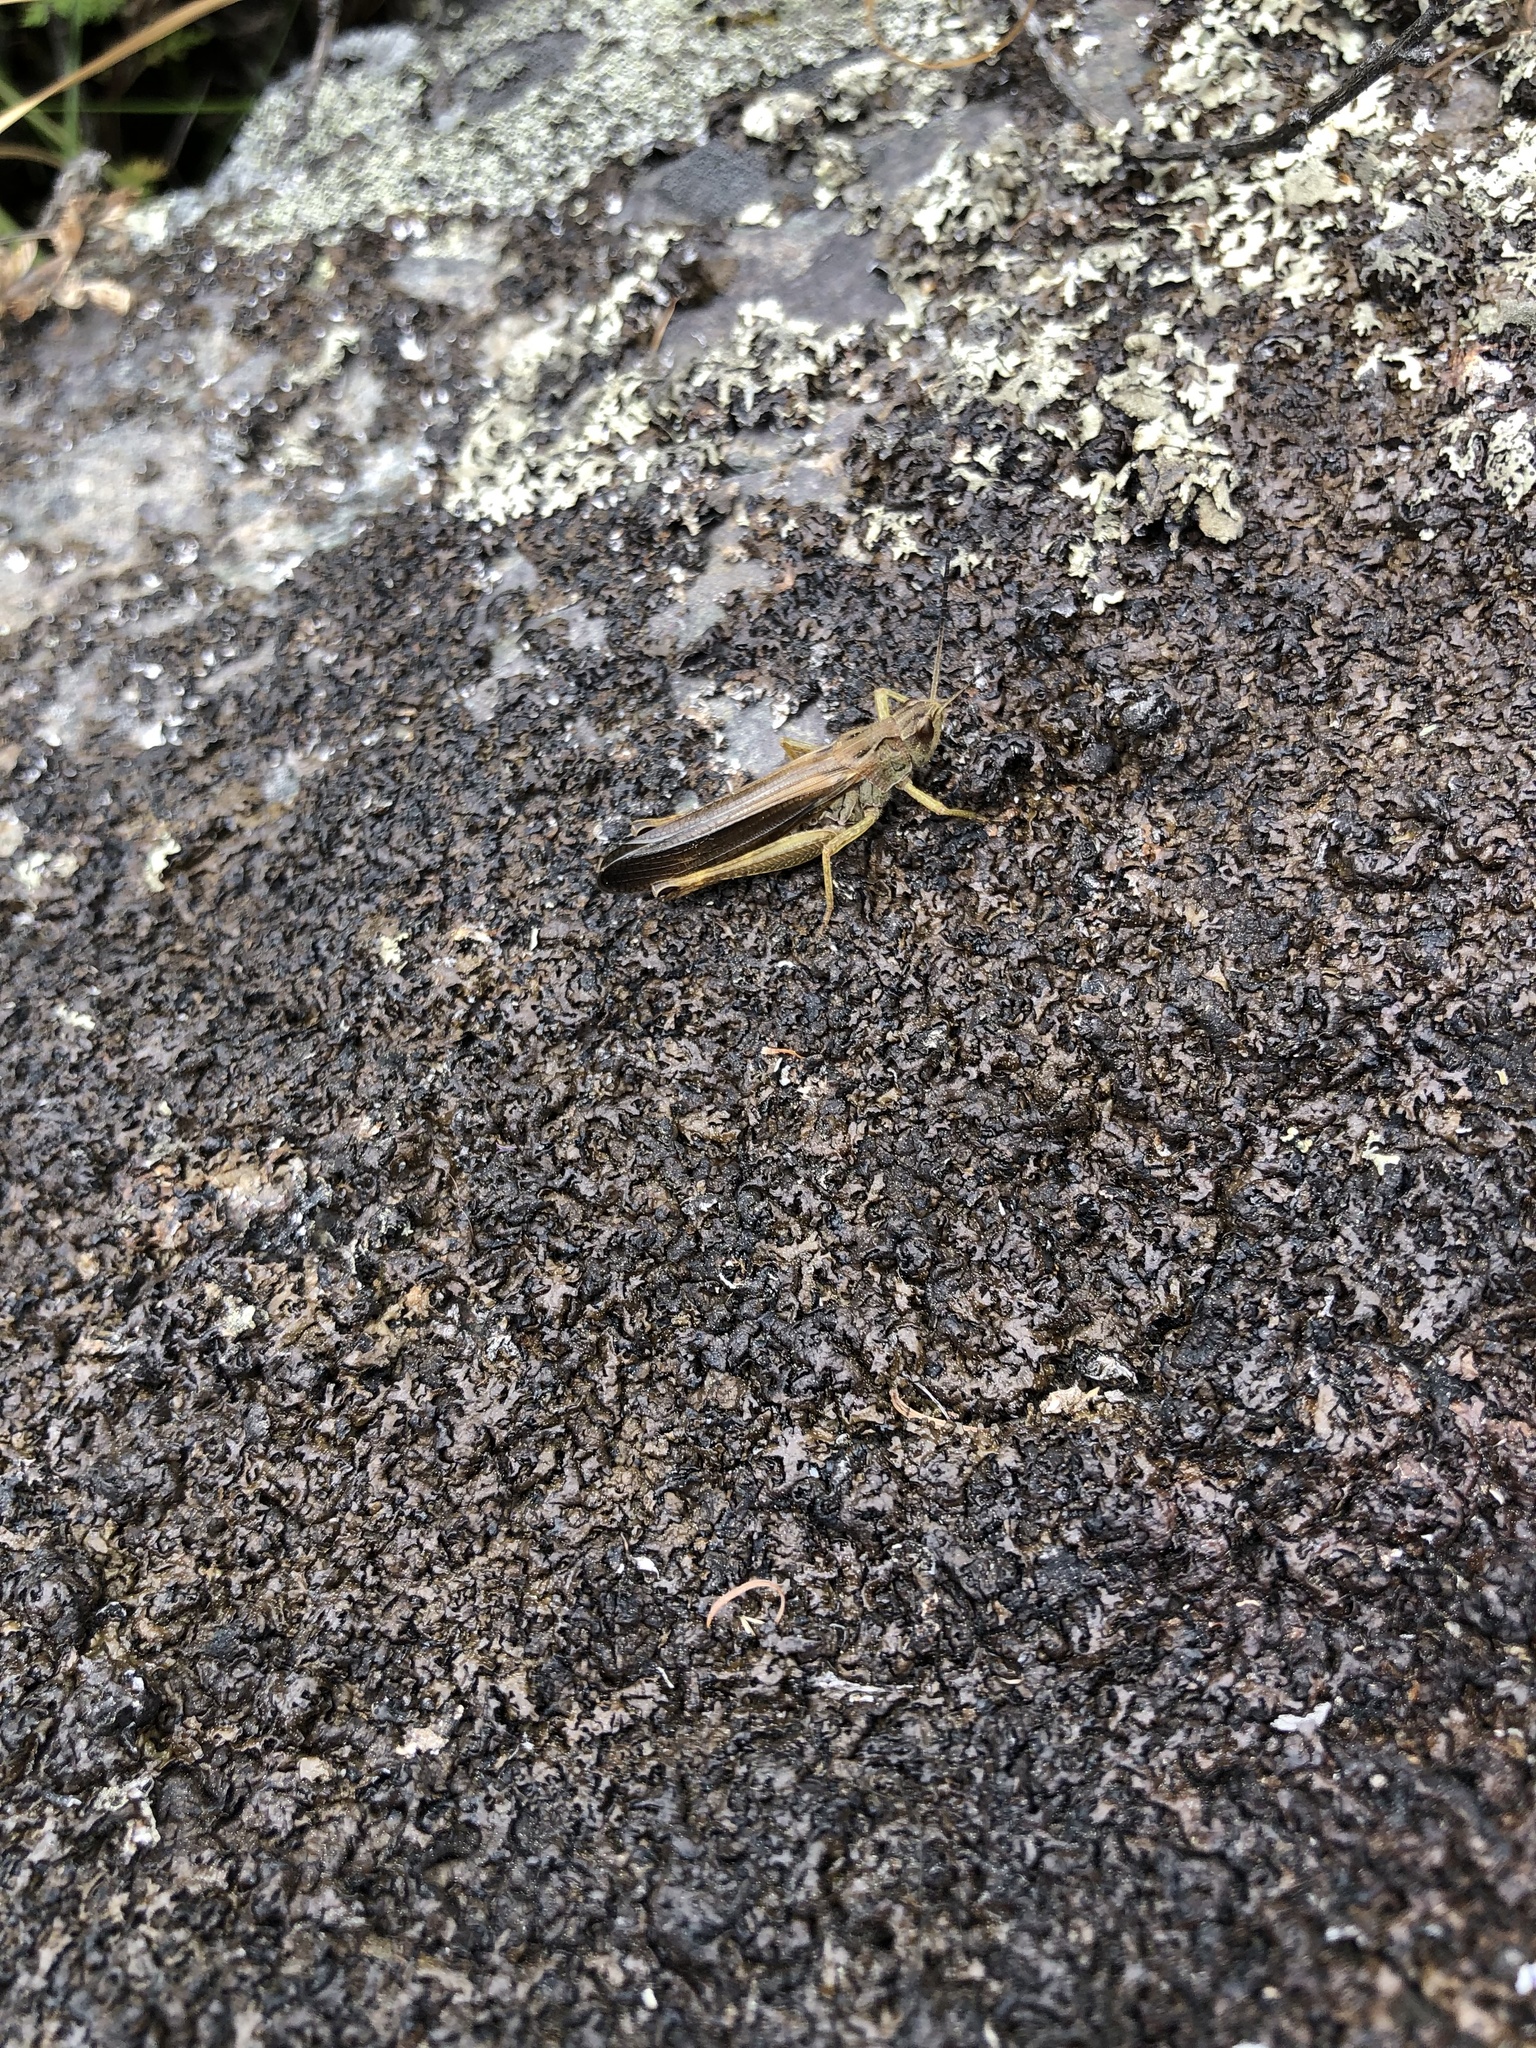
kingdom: Animalia
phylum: Arthropoda
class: Insecta
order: Orthoptera
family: Acrididae
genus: Stauroderus
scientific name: Stauroderus scalaris
